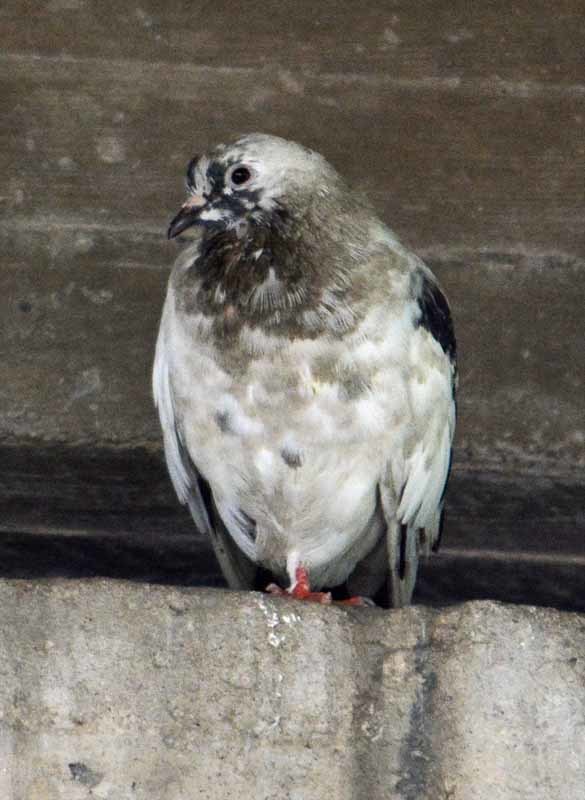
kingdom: Animalia
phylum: Chordata
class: Aves
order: Columbiformes
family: Columbidae
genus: Columba
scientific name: Columba livia
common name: Rock pigeon
